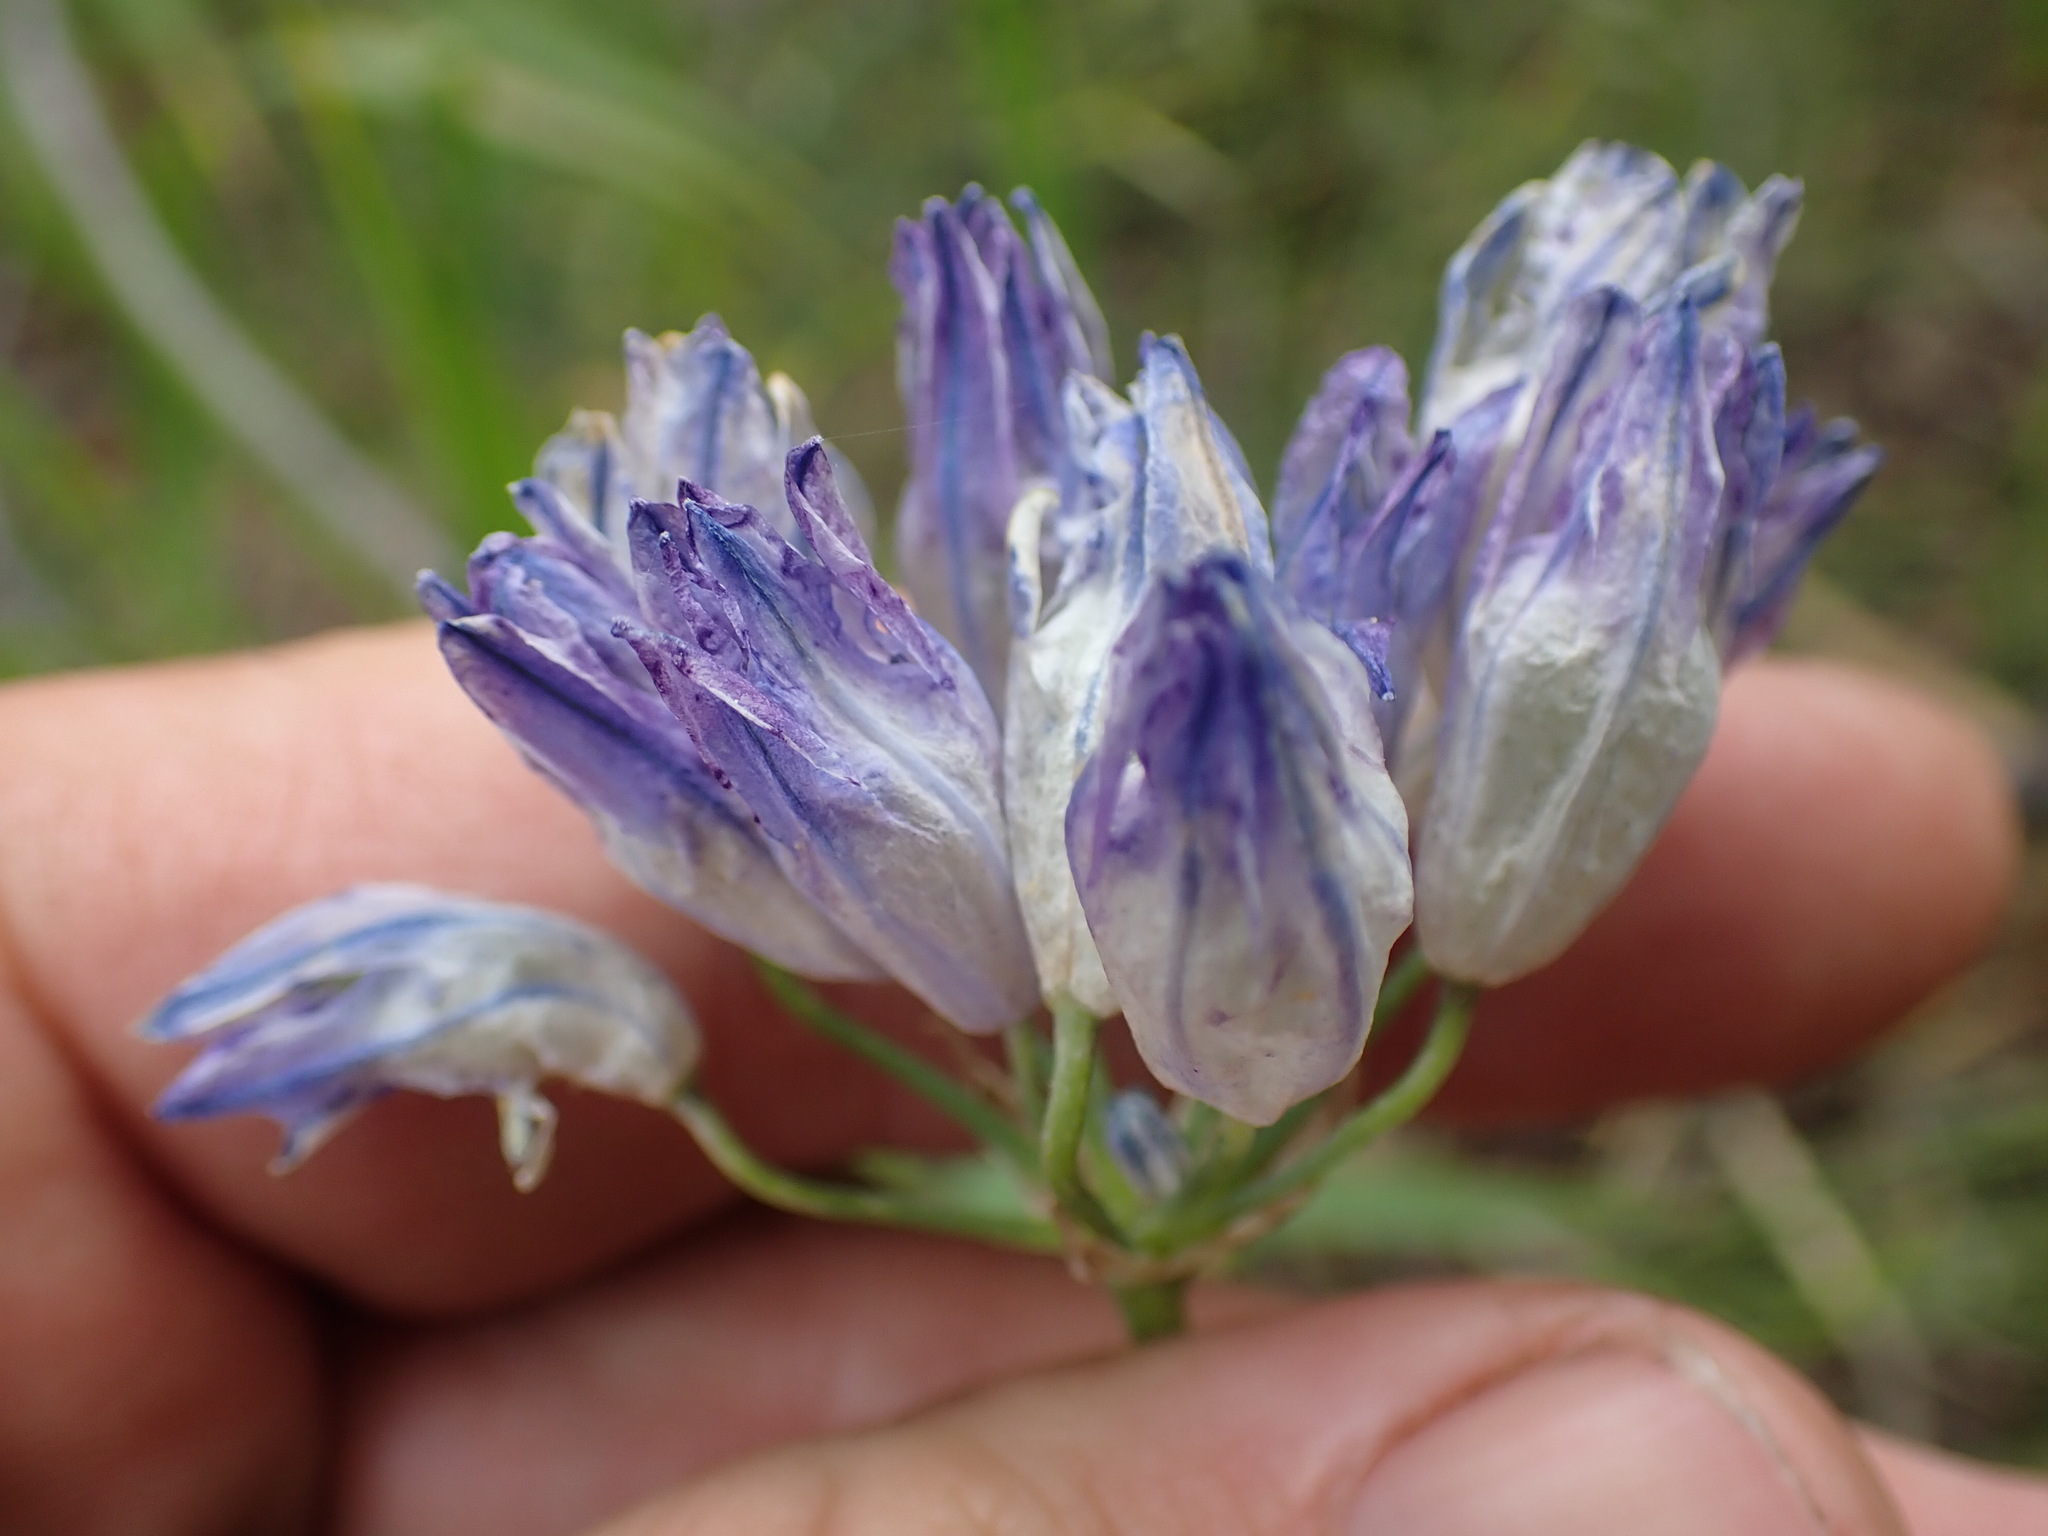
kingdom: Plantae
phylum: Tracheophyta
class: Liliopsida
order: Asparagales
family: Asparagaceae
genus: Triteleia
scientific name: Triteleia grandiflora
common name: Wild hyacinth
